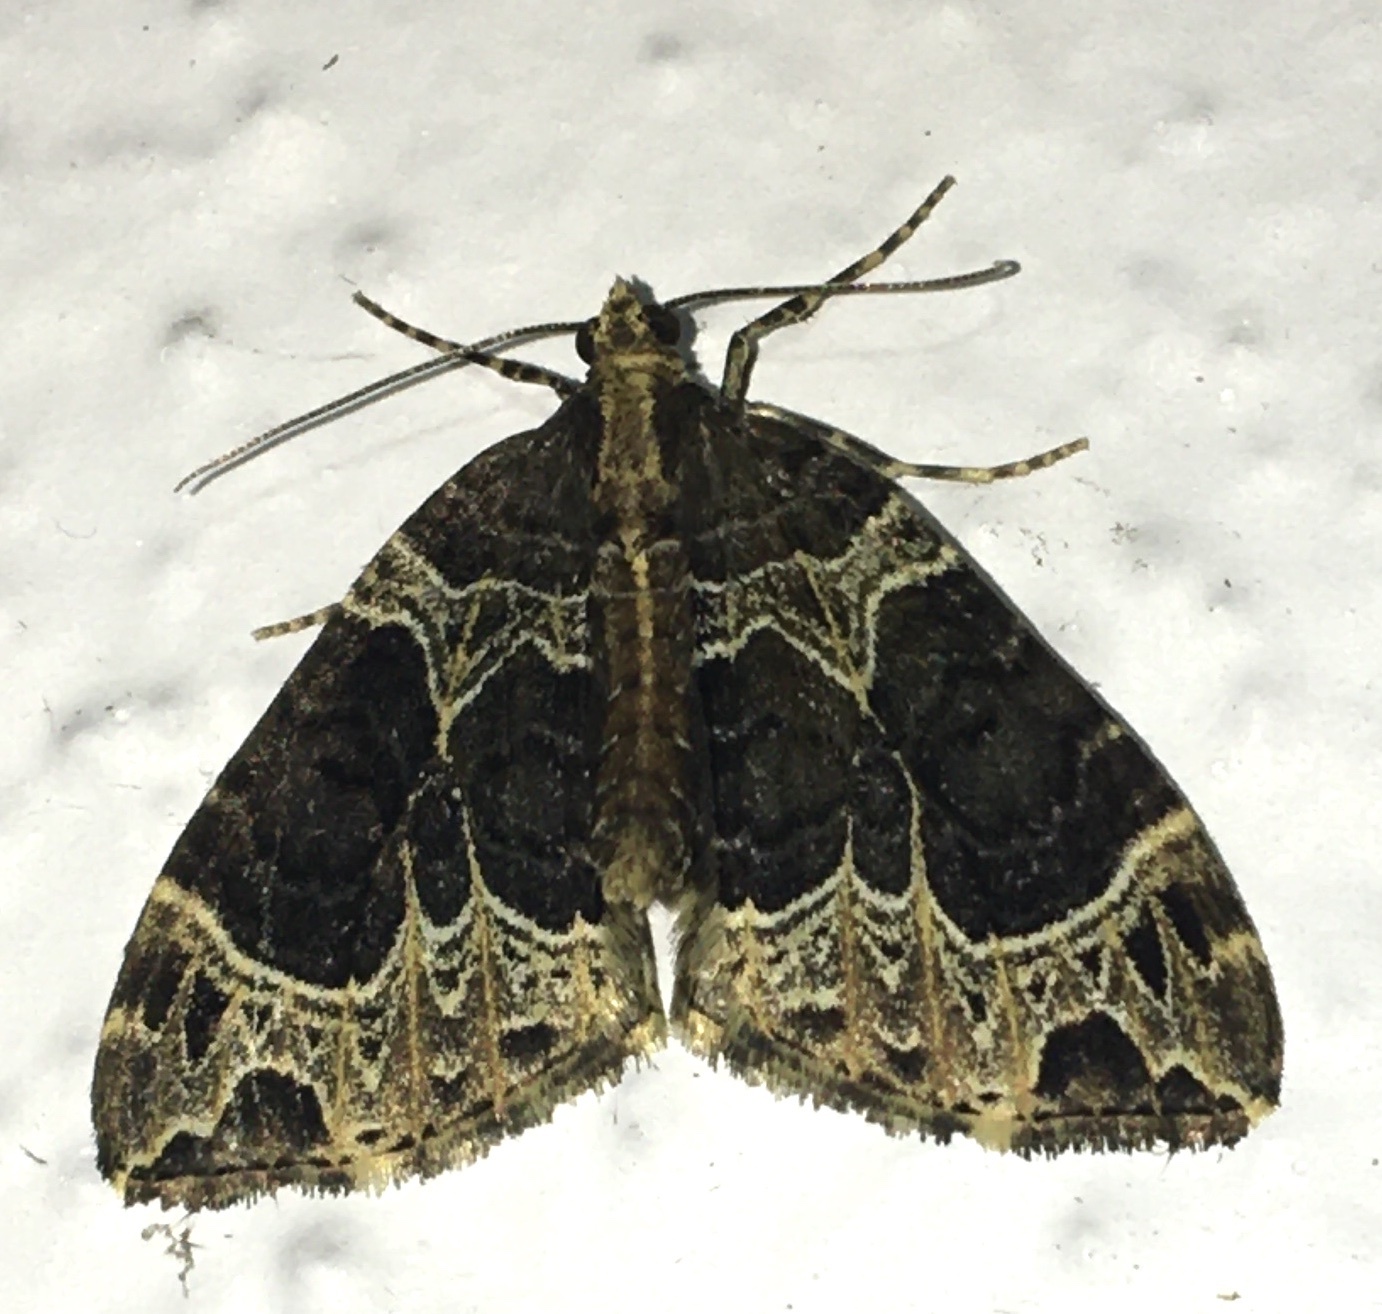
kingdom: Animalia
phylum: Arthropoda
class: Insecta
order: Lepidoptera
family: Geometridae
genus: Ecliptopera
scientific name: Ecliptopera silaceata
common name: Small phoenix
